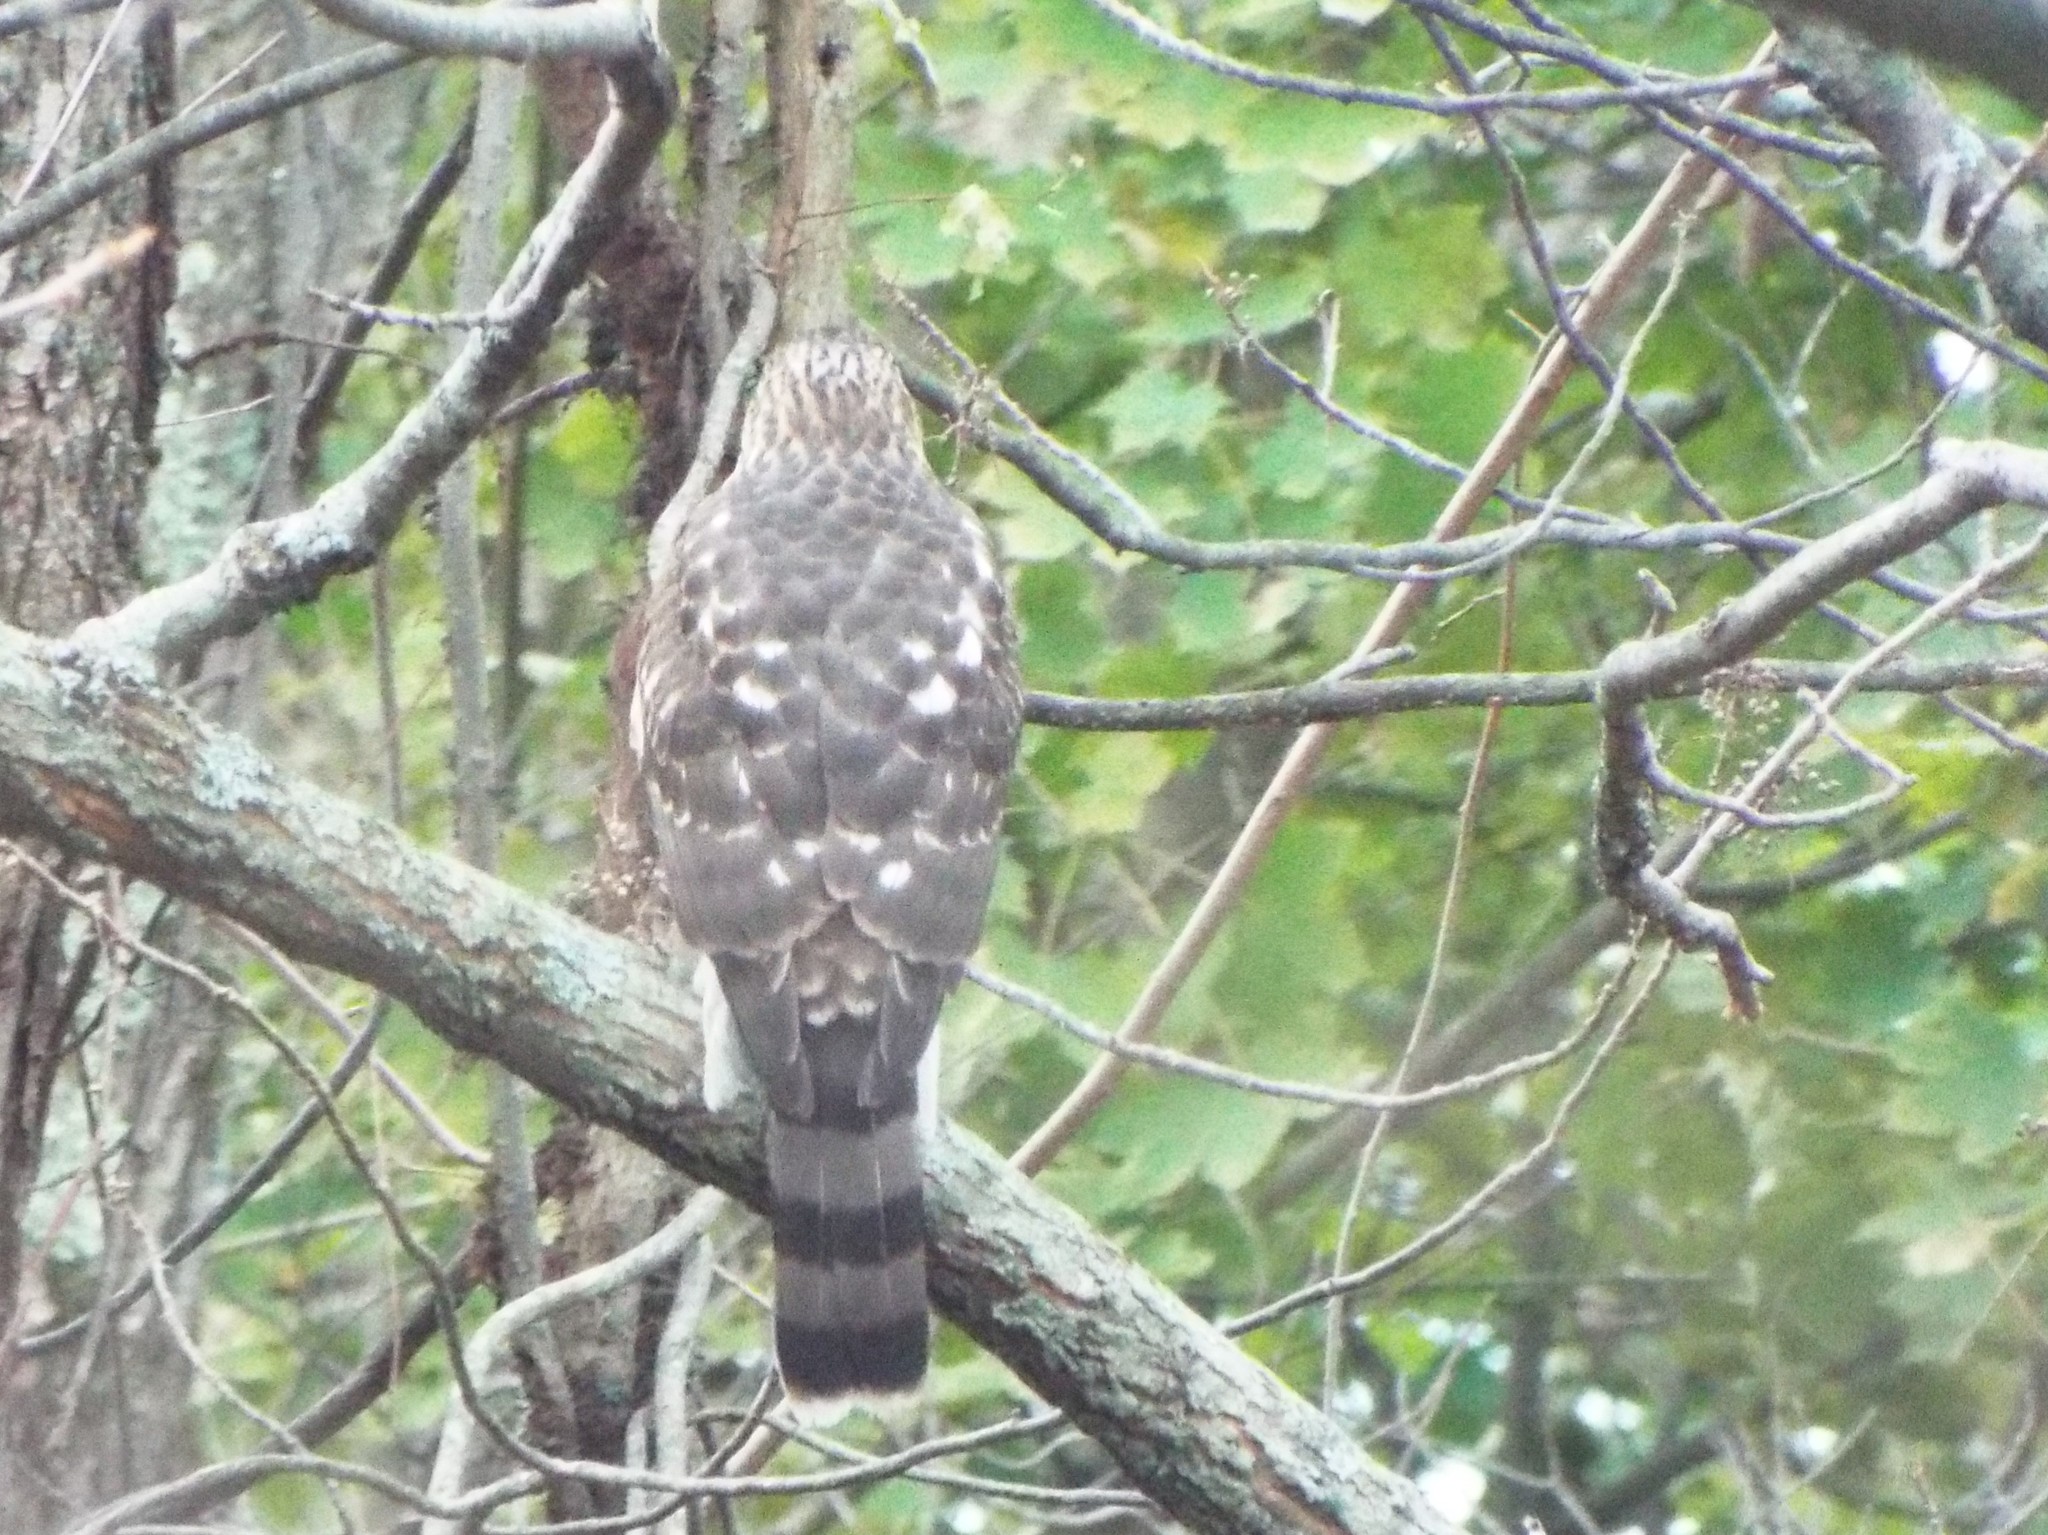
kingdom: Animalia
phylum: Chordata
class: Aves
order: Accipitriformes
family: Accipitridae
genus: Accipiter
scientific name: Accipiter cooperii
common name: Cooper's hawk
